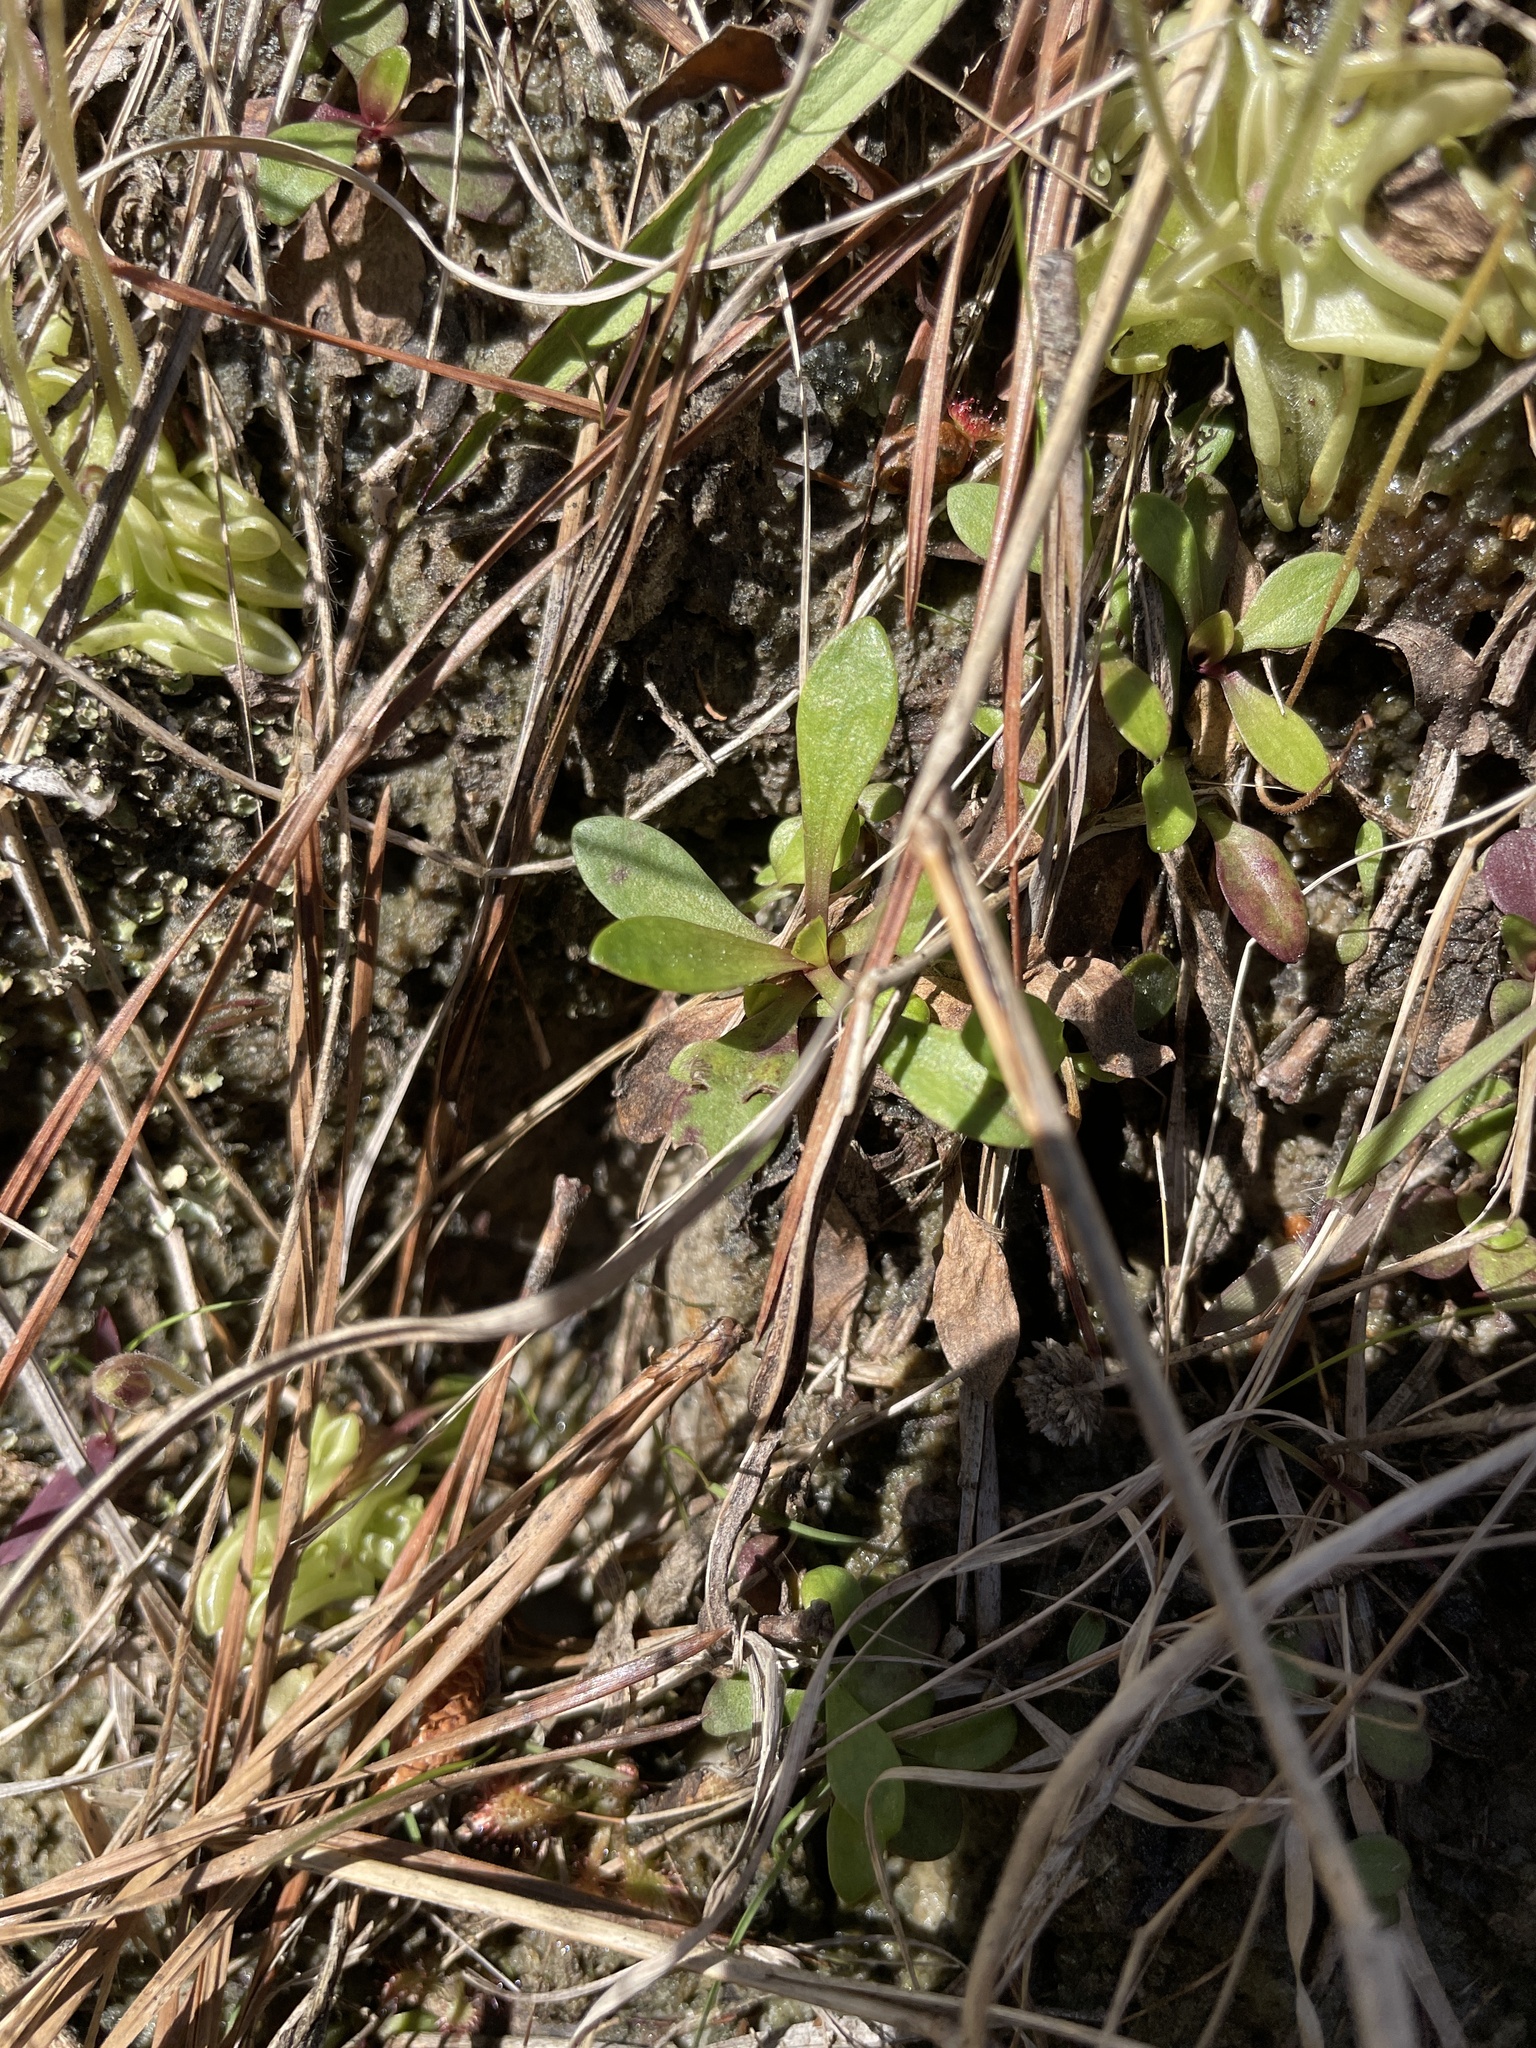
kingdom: Plantae
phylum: Tracheophyta
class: Magnoliopsida
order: Lamiales
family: Lentibulariaceae
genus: Pinguicula
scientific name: Pinguicula pumila
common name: Small butterwort
